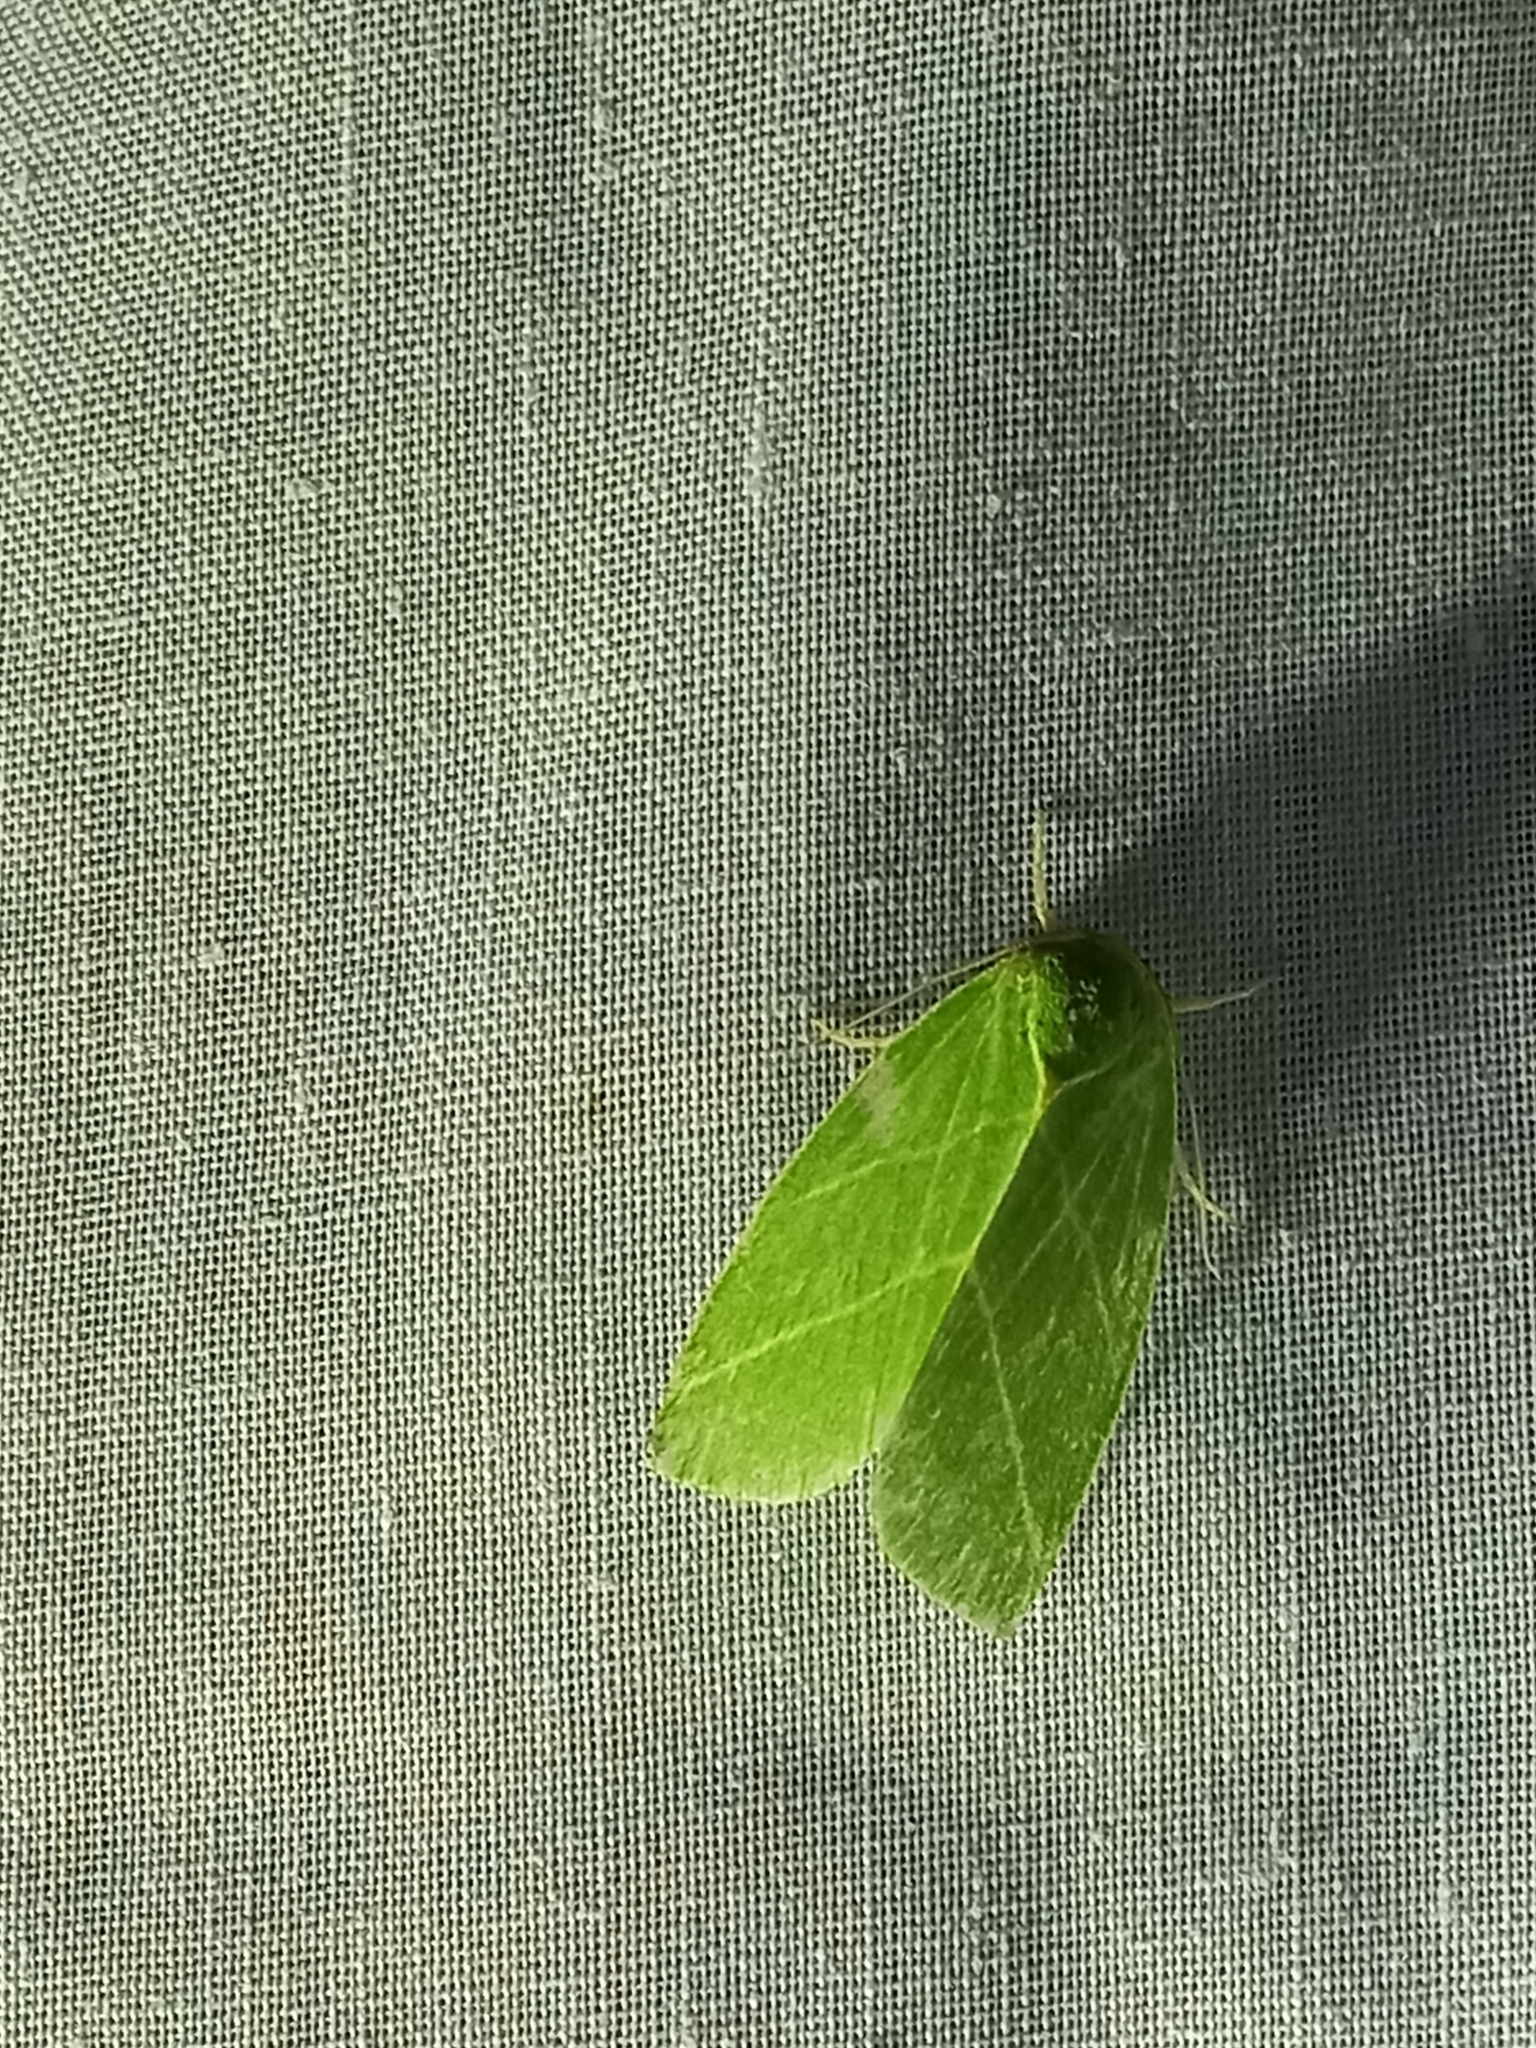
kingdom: Animalia
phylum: Arthropoda
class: Insecta
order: Lepidoptera
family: Nolidae
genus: Bena
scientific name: Bena bicolorana
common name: Scarce silver-lines
